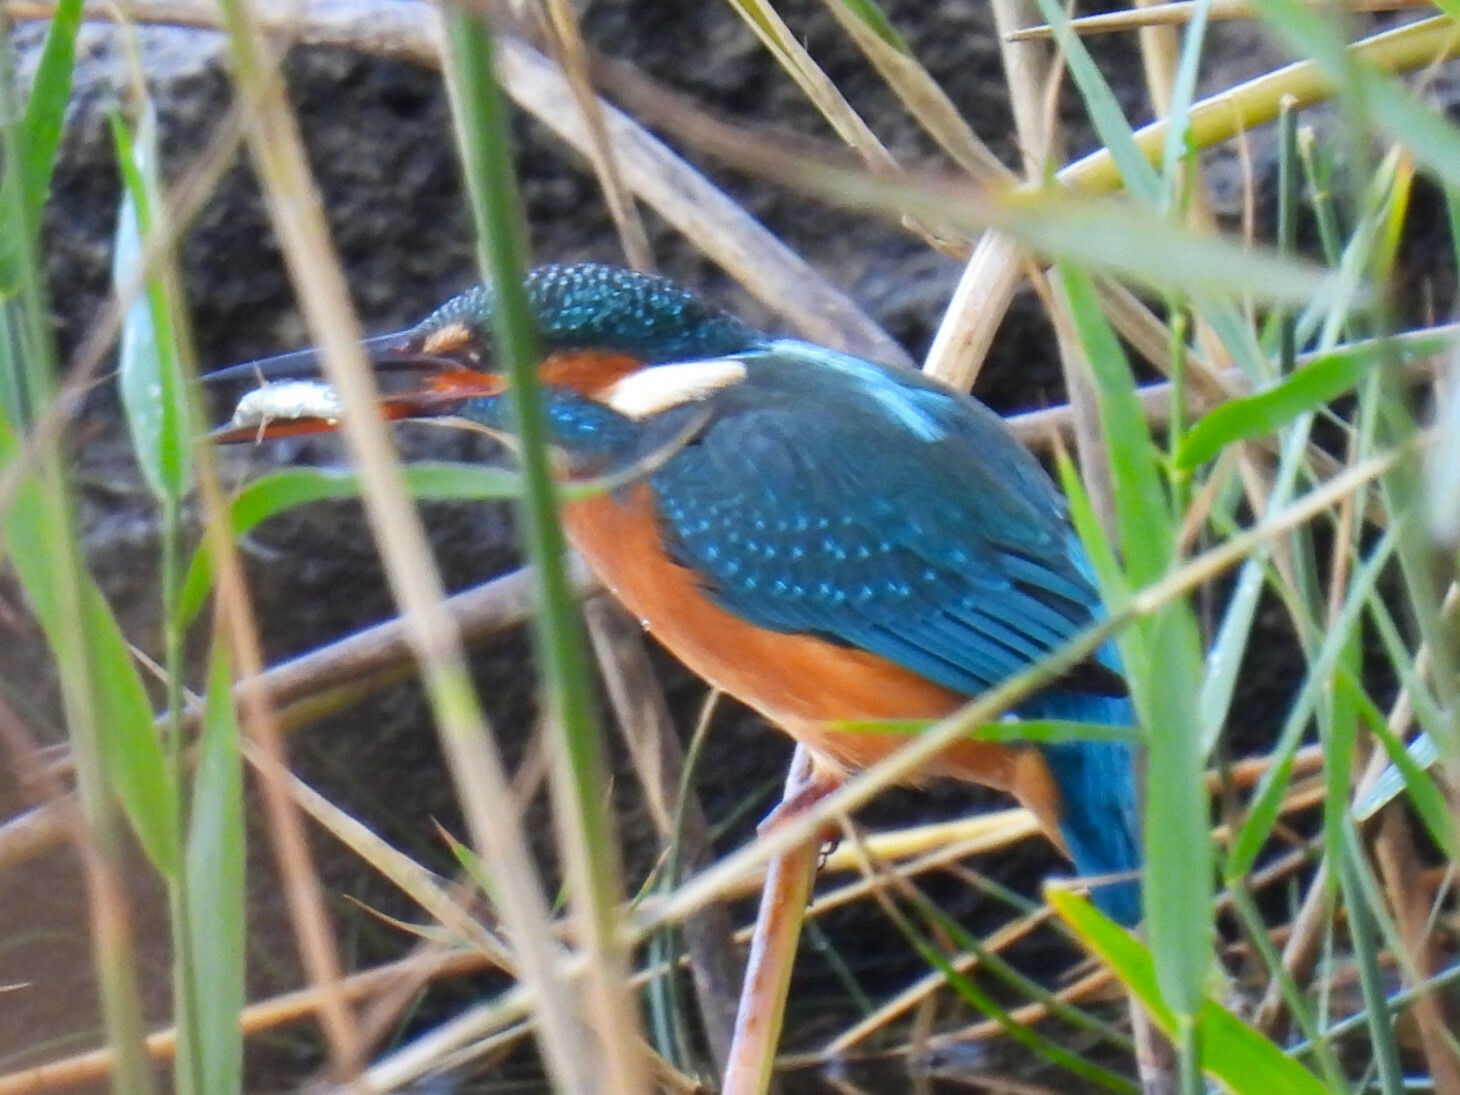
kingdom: Animalia
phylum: Chordata
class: Aves
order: Coraciiformes
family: Alcedinidae
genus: Alcedo
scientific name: Alcedo atthis
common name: Common kingfisher
